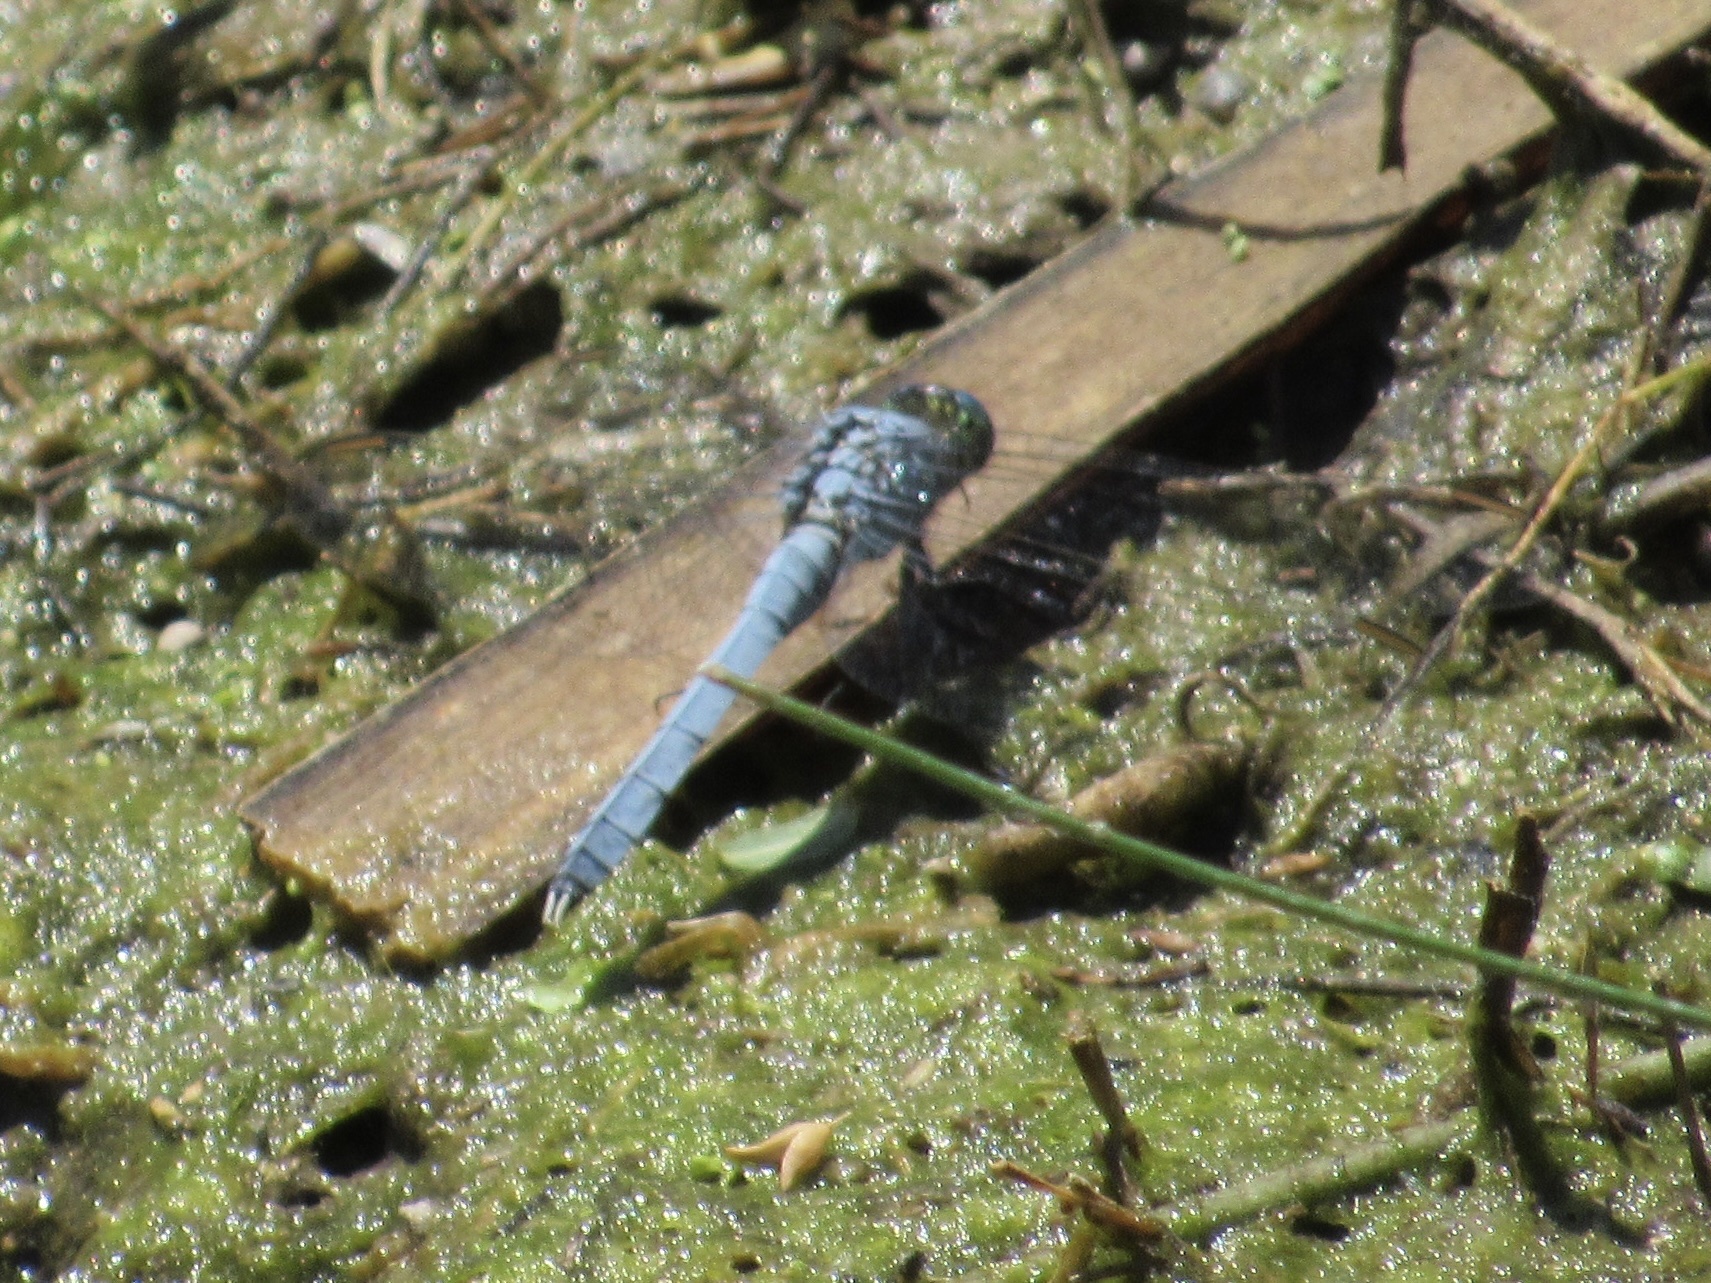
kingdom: Animalia
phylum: Arthropoda
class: Insecta
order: Odonata
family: Libellulidae
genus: Erythemis
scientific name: Erythemis simplicicollis
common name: Eastern pondhawk
